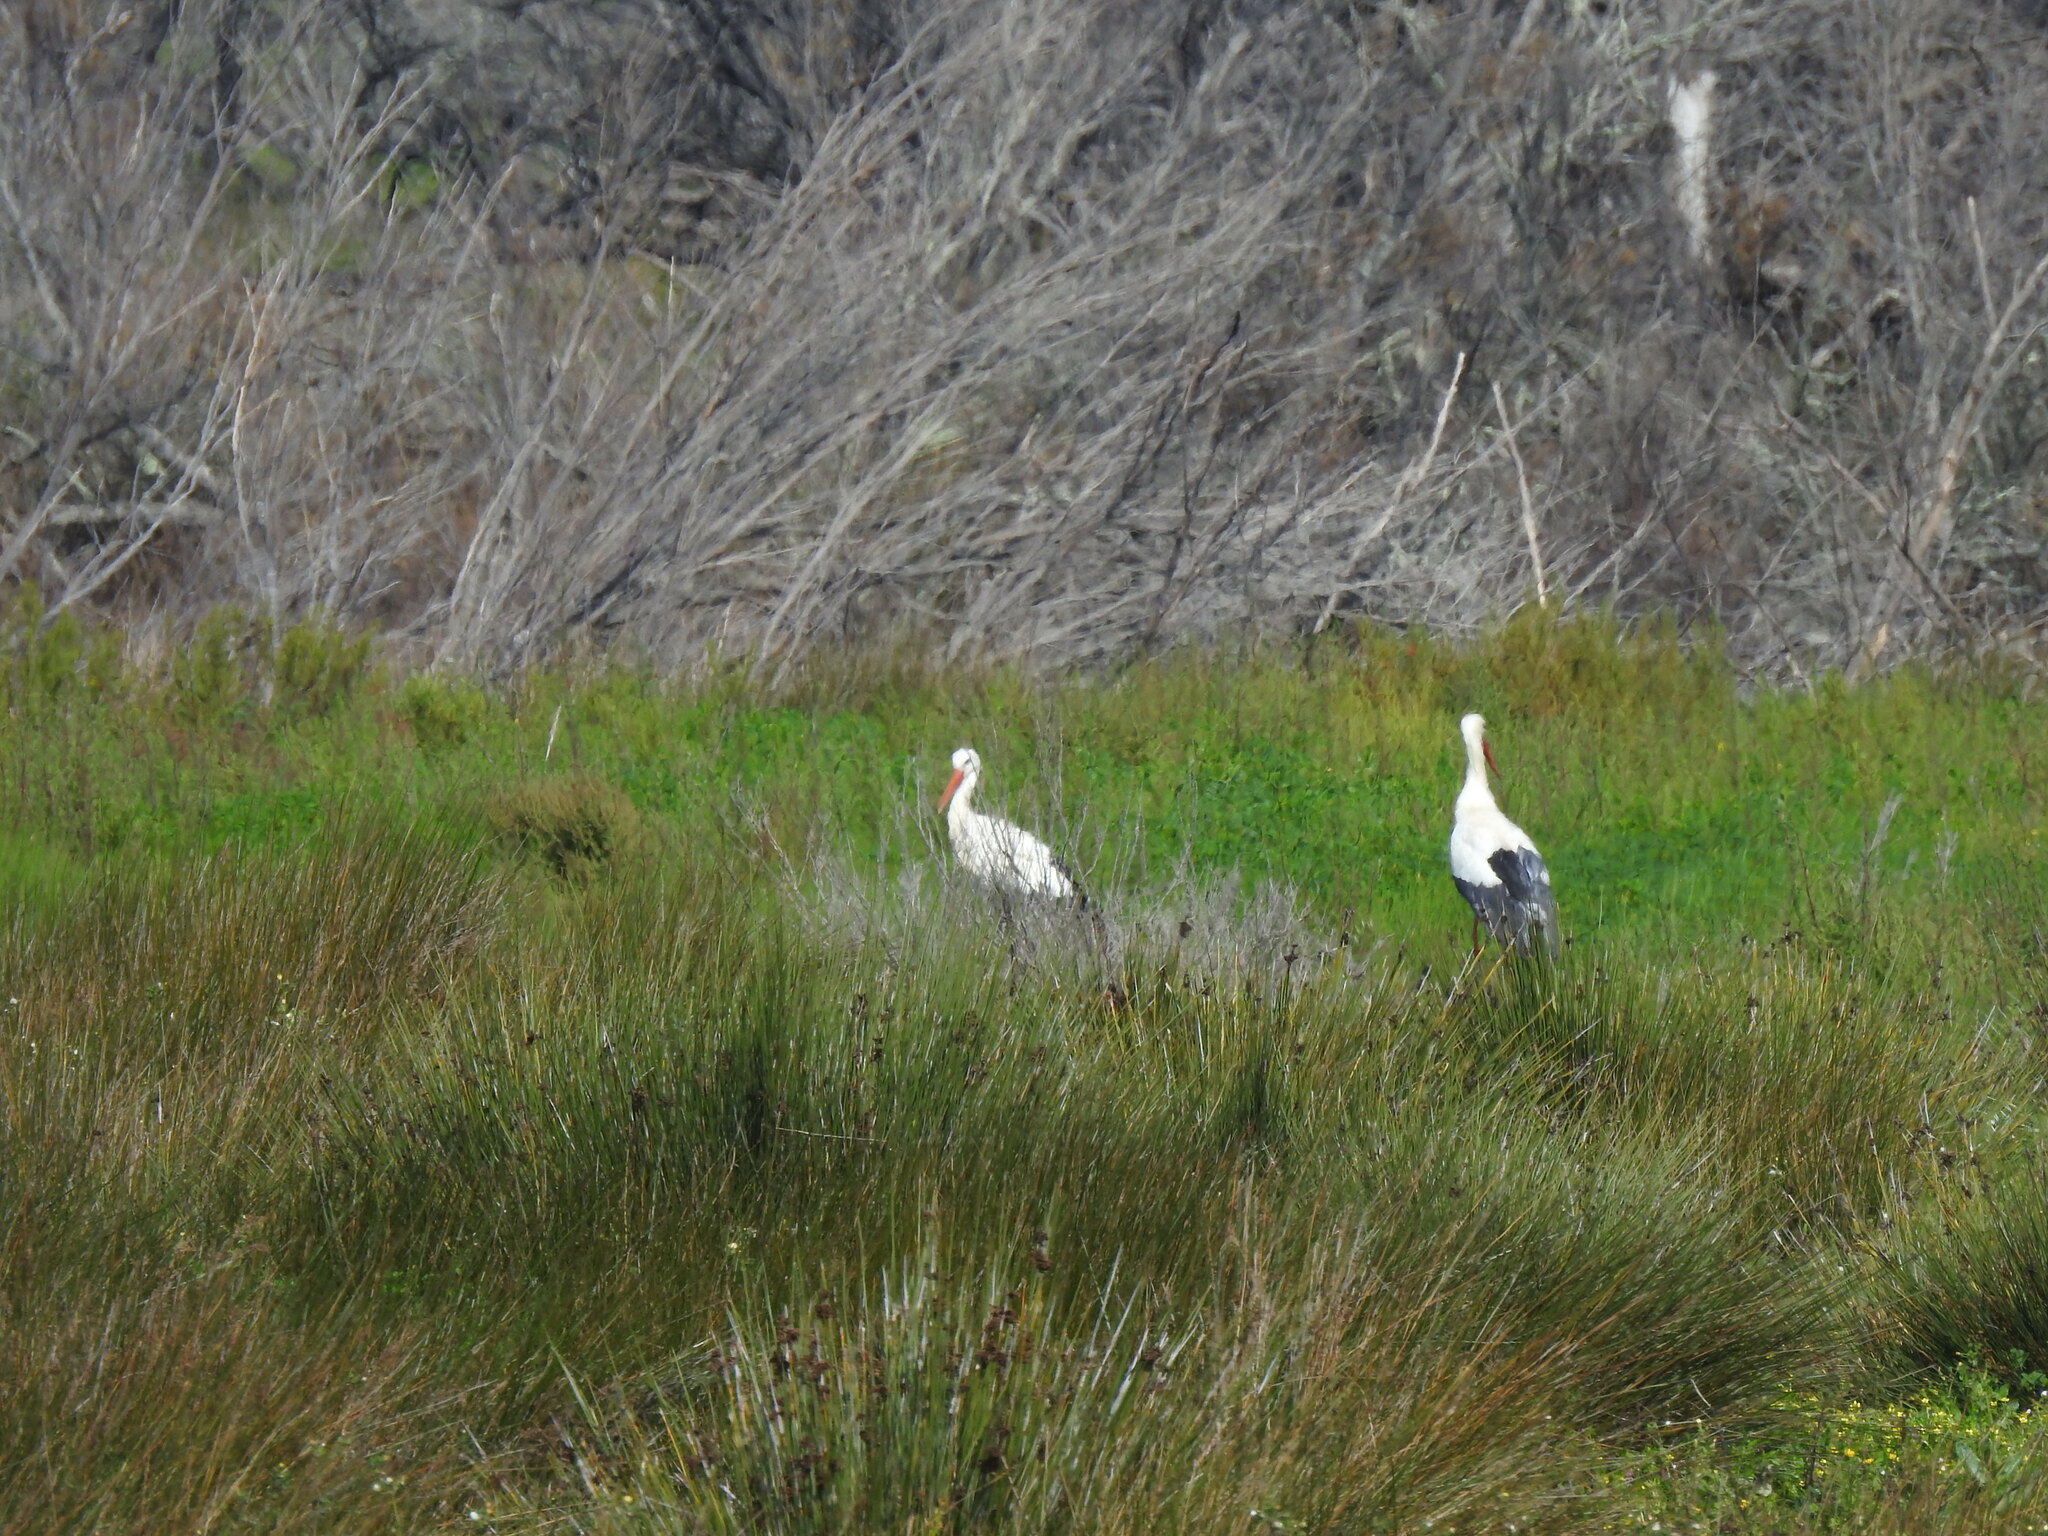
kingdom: Animalia
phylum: Chordata
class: Aves
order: Ciconiiformes
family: Ciconiidae
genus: Ciconia
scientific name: Ciconia ciconia
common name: White stork
